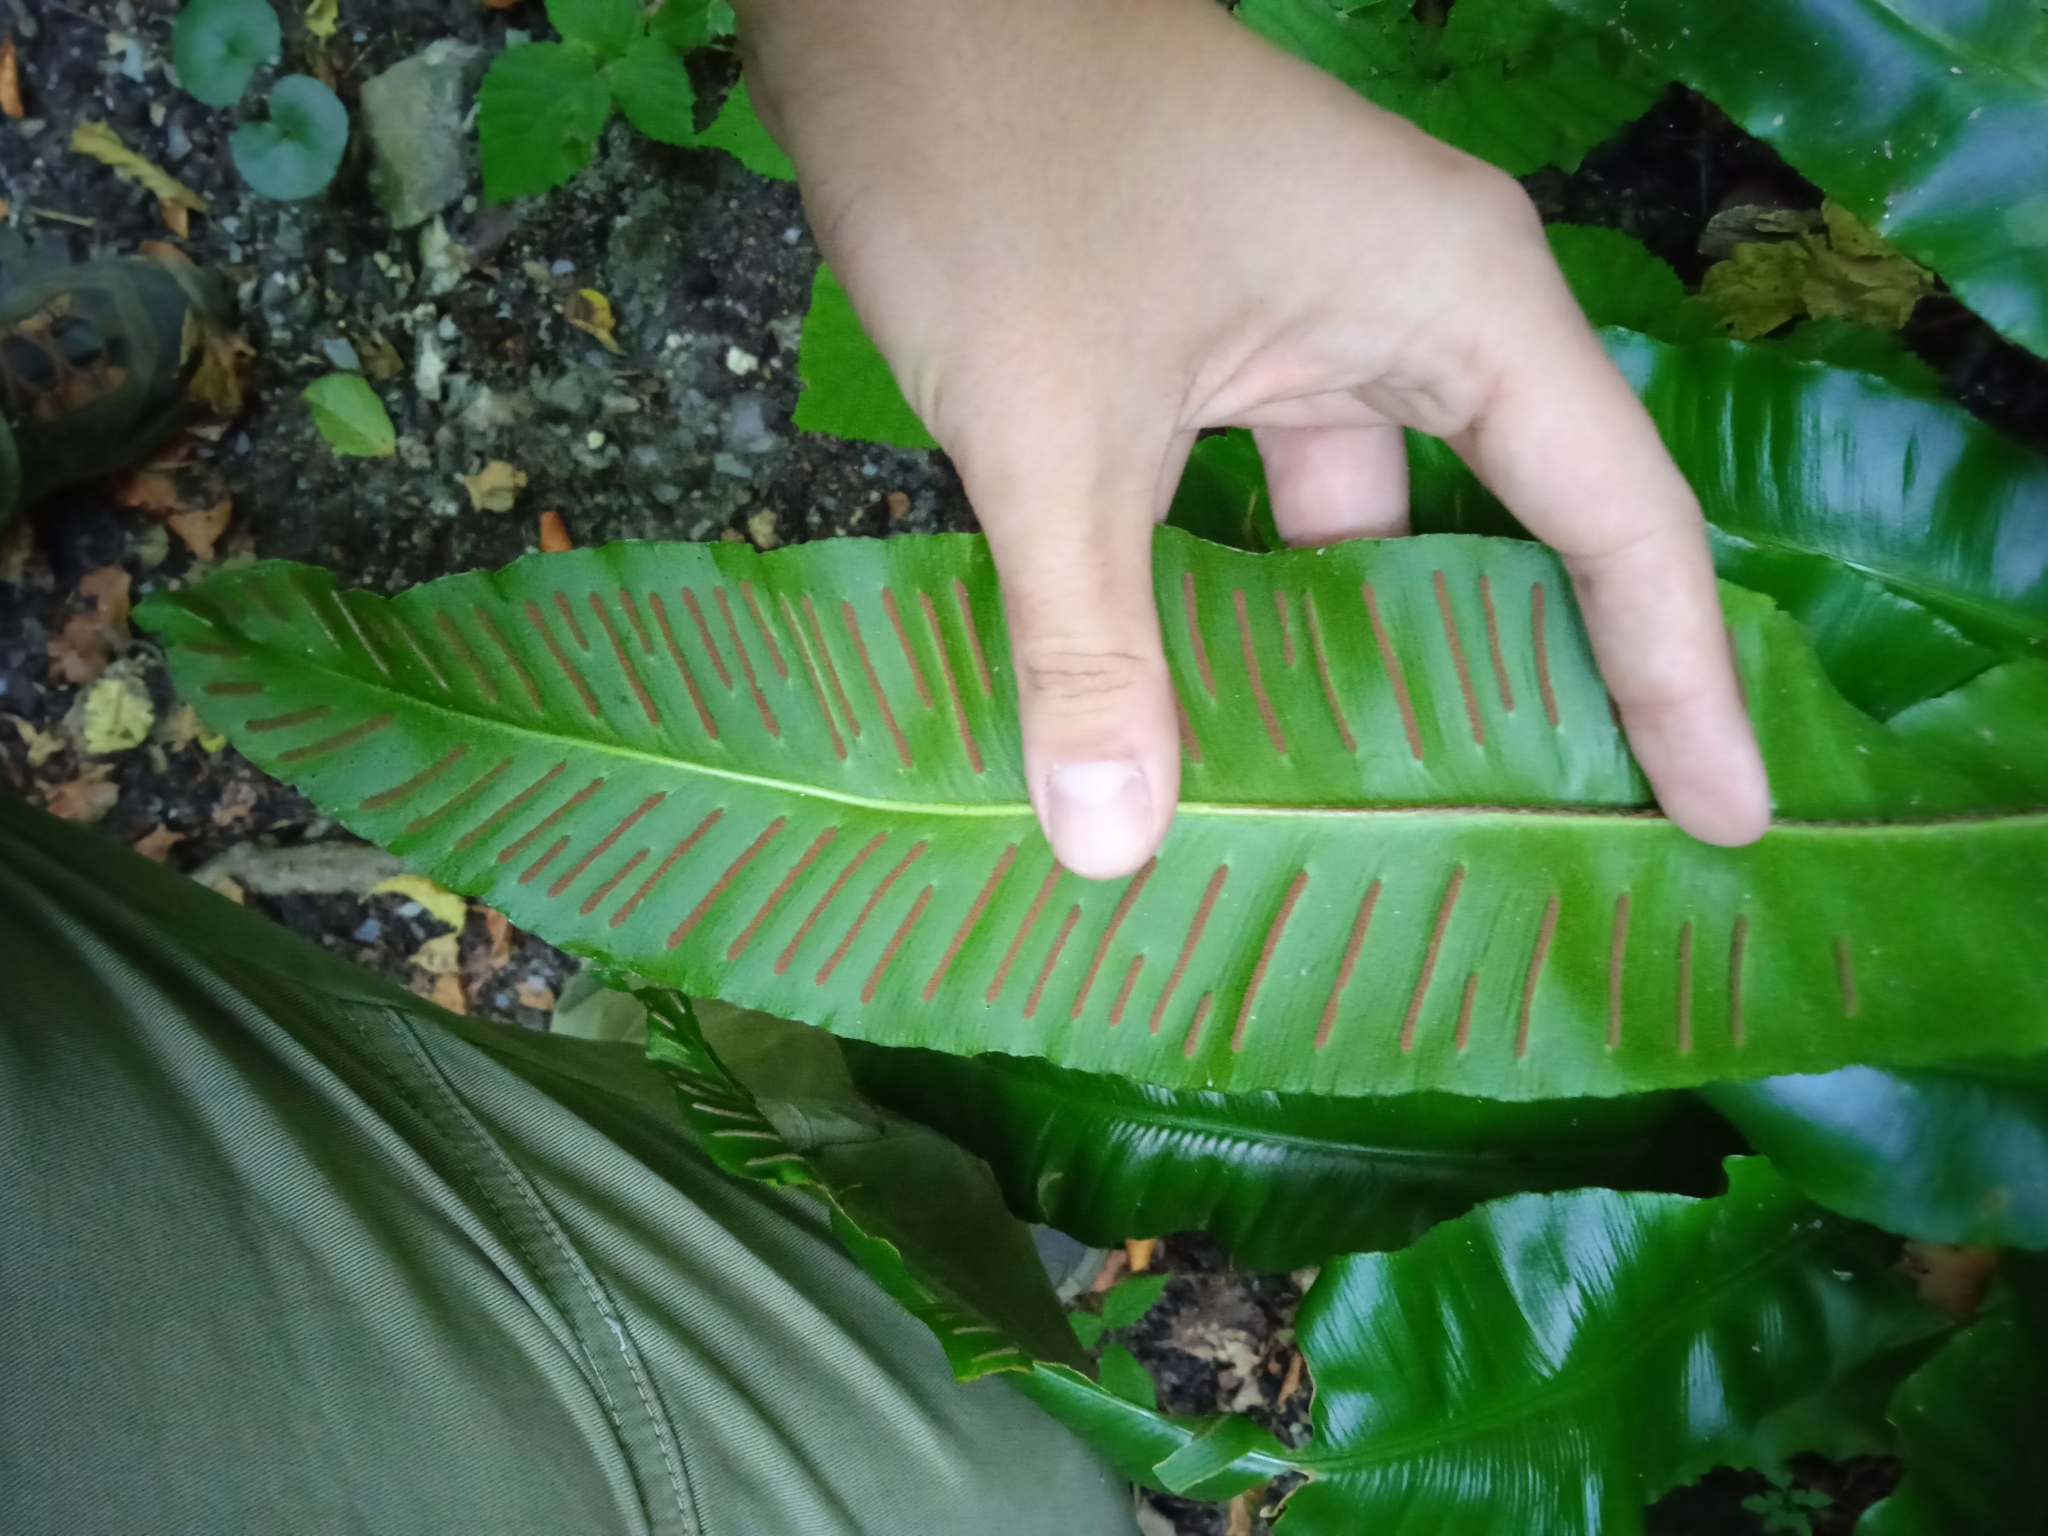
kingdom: Plantae
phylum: Tracheophyta
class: Polypodiopsida
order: Polypodiales
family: Aspleniaceae
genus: Asplenium
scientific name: Asplenium scolopendrium
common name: Hart's-tongue fern
